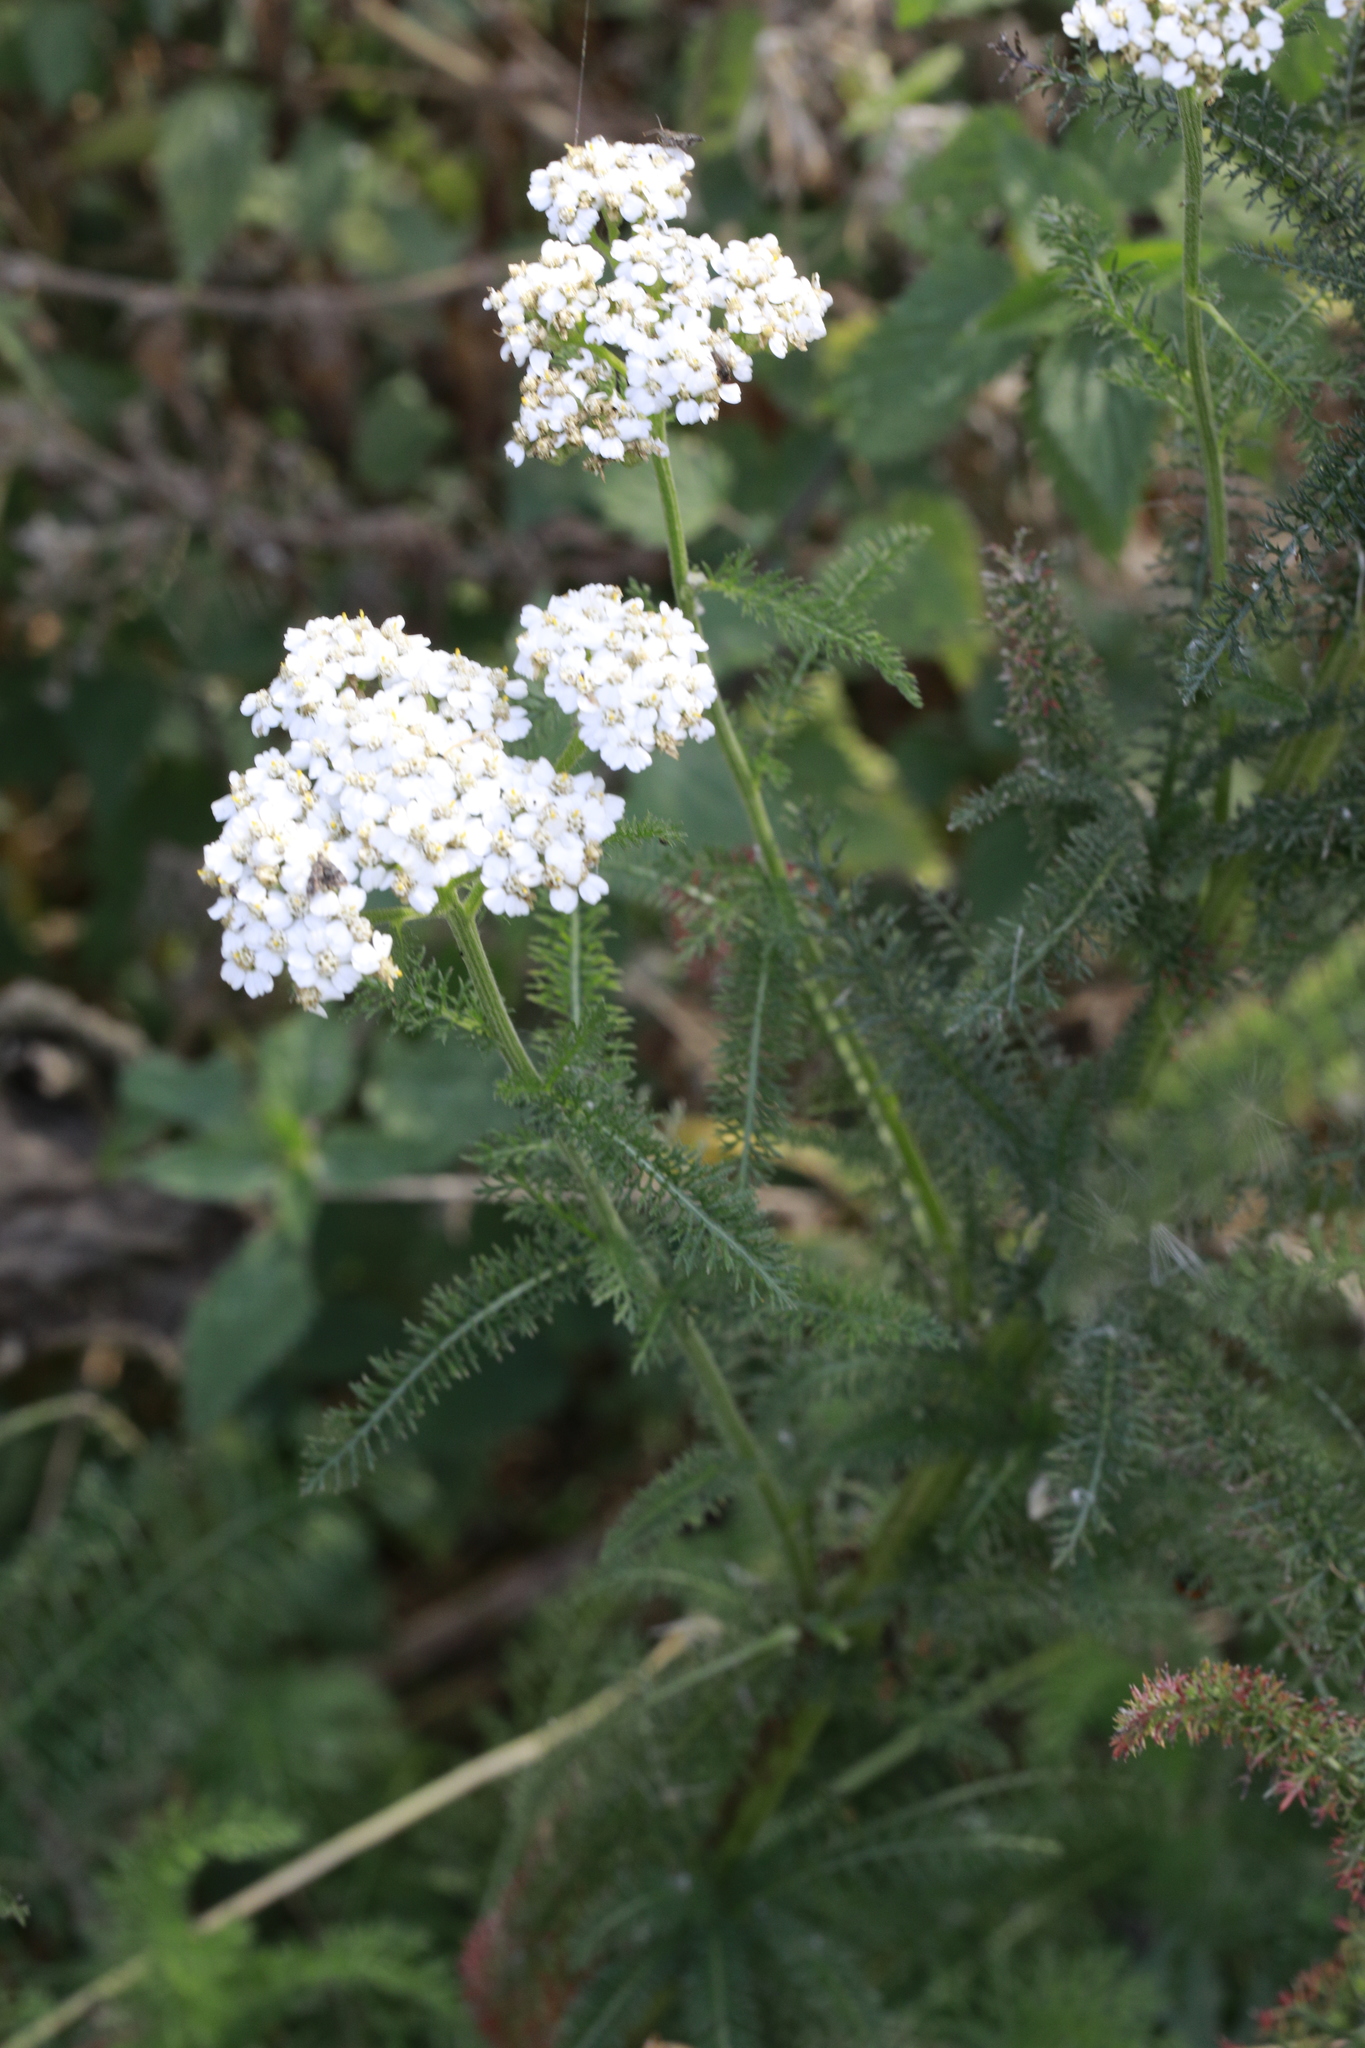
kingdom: Plantae
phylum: Tracheophyta
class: Magnoliopsida
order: Asterales
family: Asteraceae
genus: Achillea
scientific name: Achillea millefolium
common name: Yarrow
